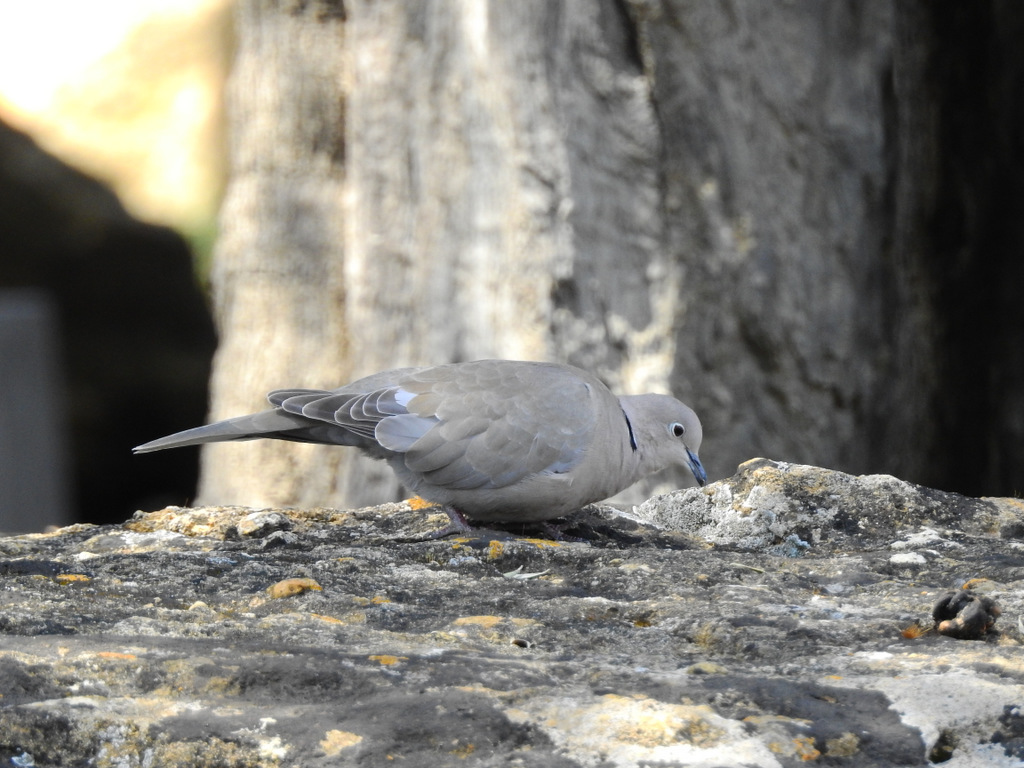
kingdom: Animalia
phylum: Chordata
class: Aves
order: Columbiformes
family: Columbidae
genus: Streptopelia
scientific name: Streptopelia decaocto
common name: Eurasian collared dove
